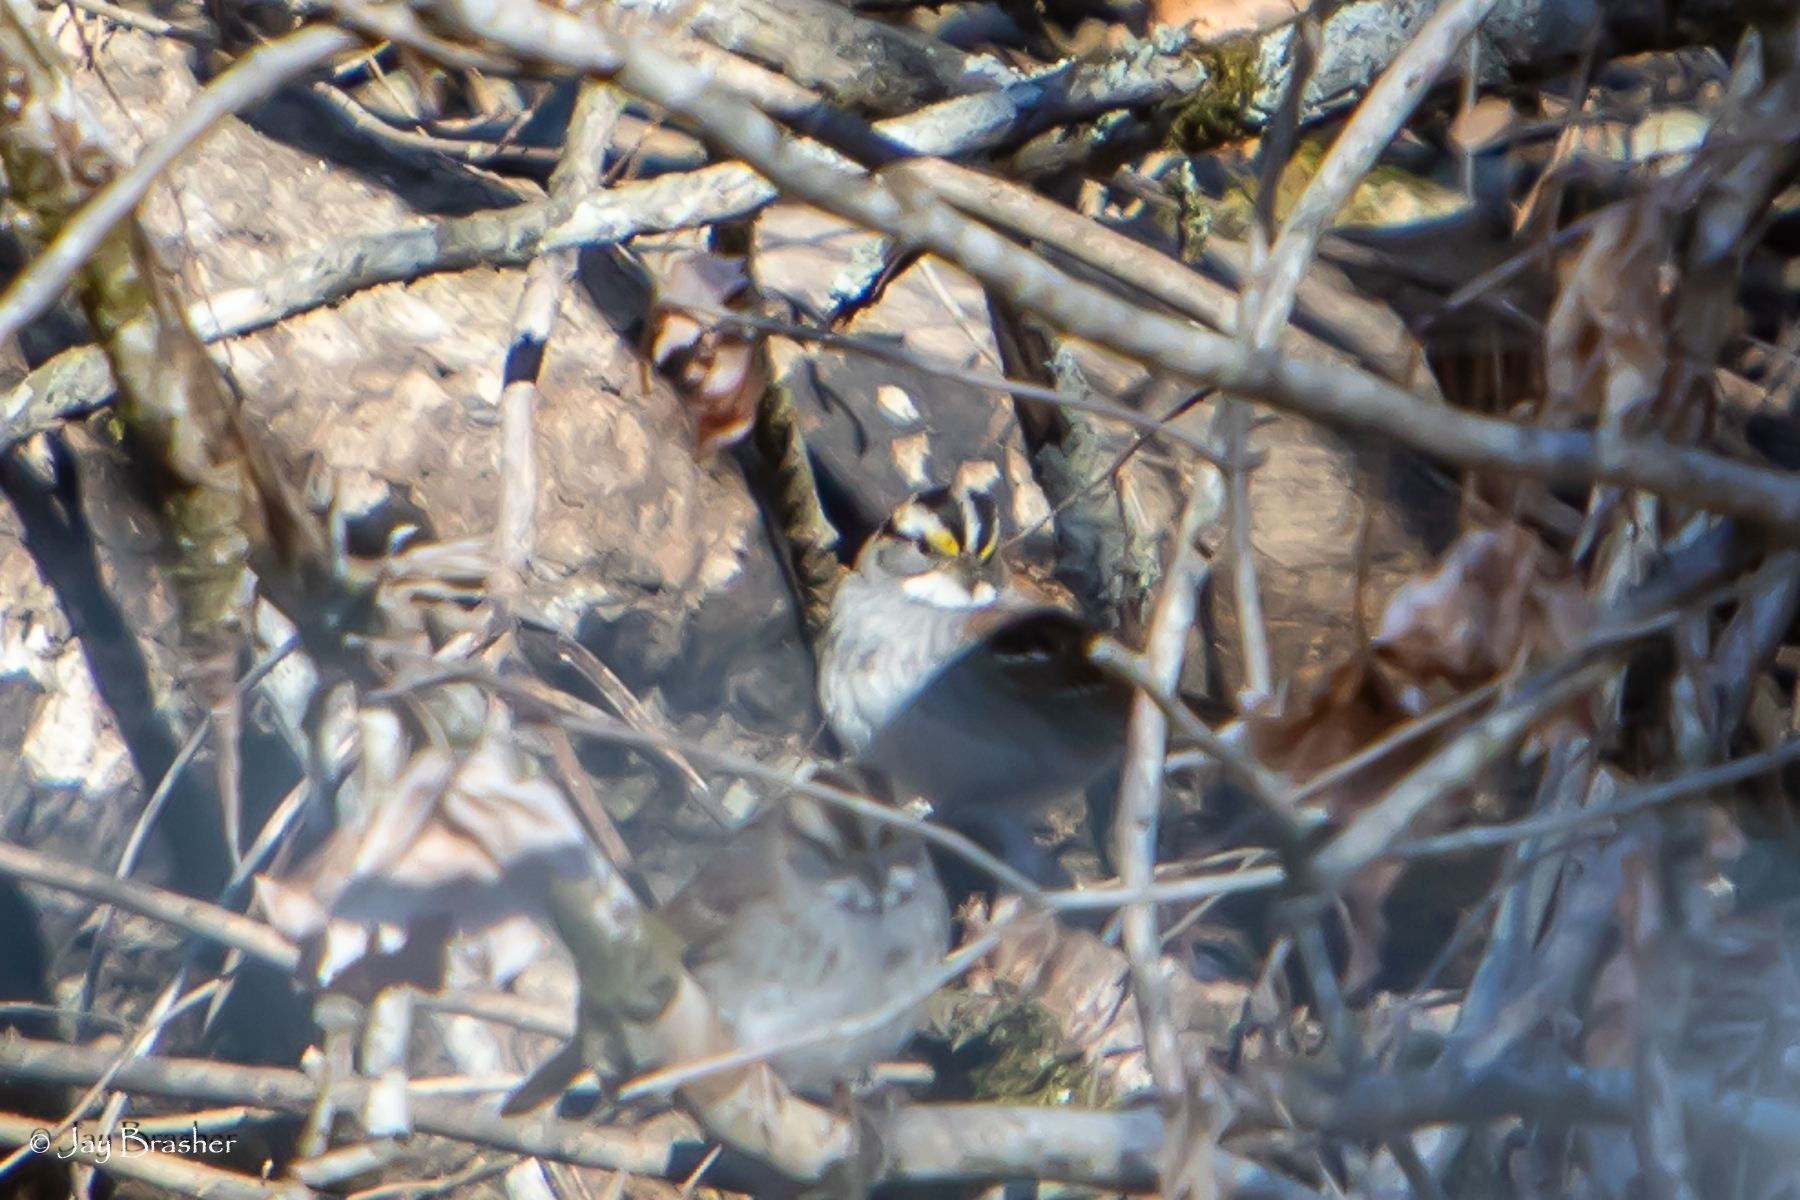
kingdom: Animalia
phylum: Chordata
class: Aves
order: Passeriformes
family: Passerellidae
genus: Zonotrichia
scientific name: Zonotrichia albicollis
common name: White-throated sparrow
